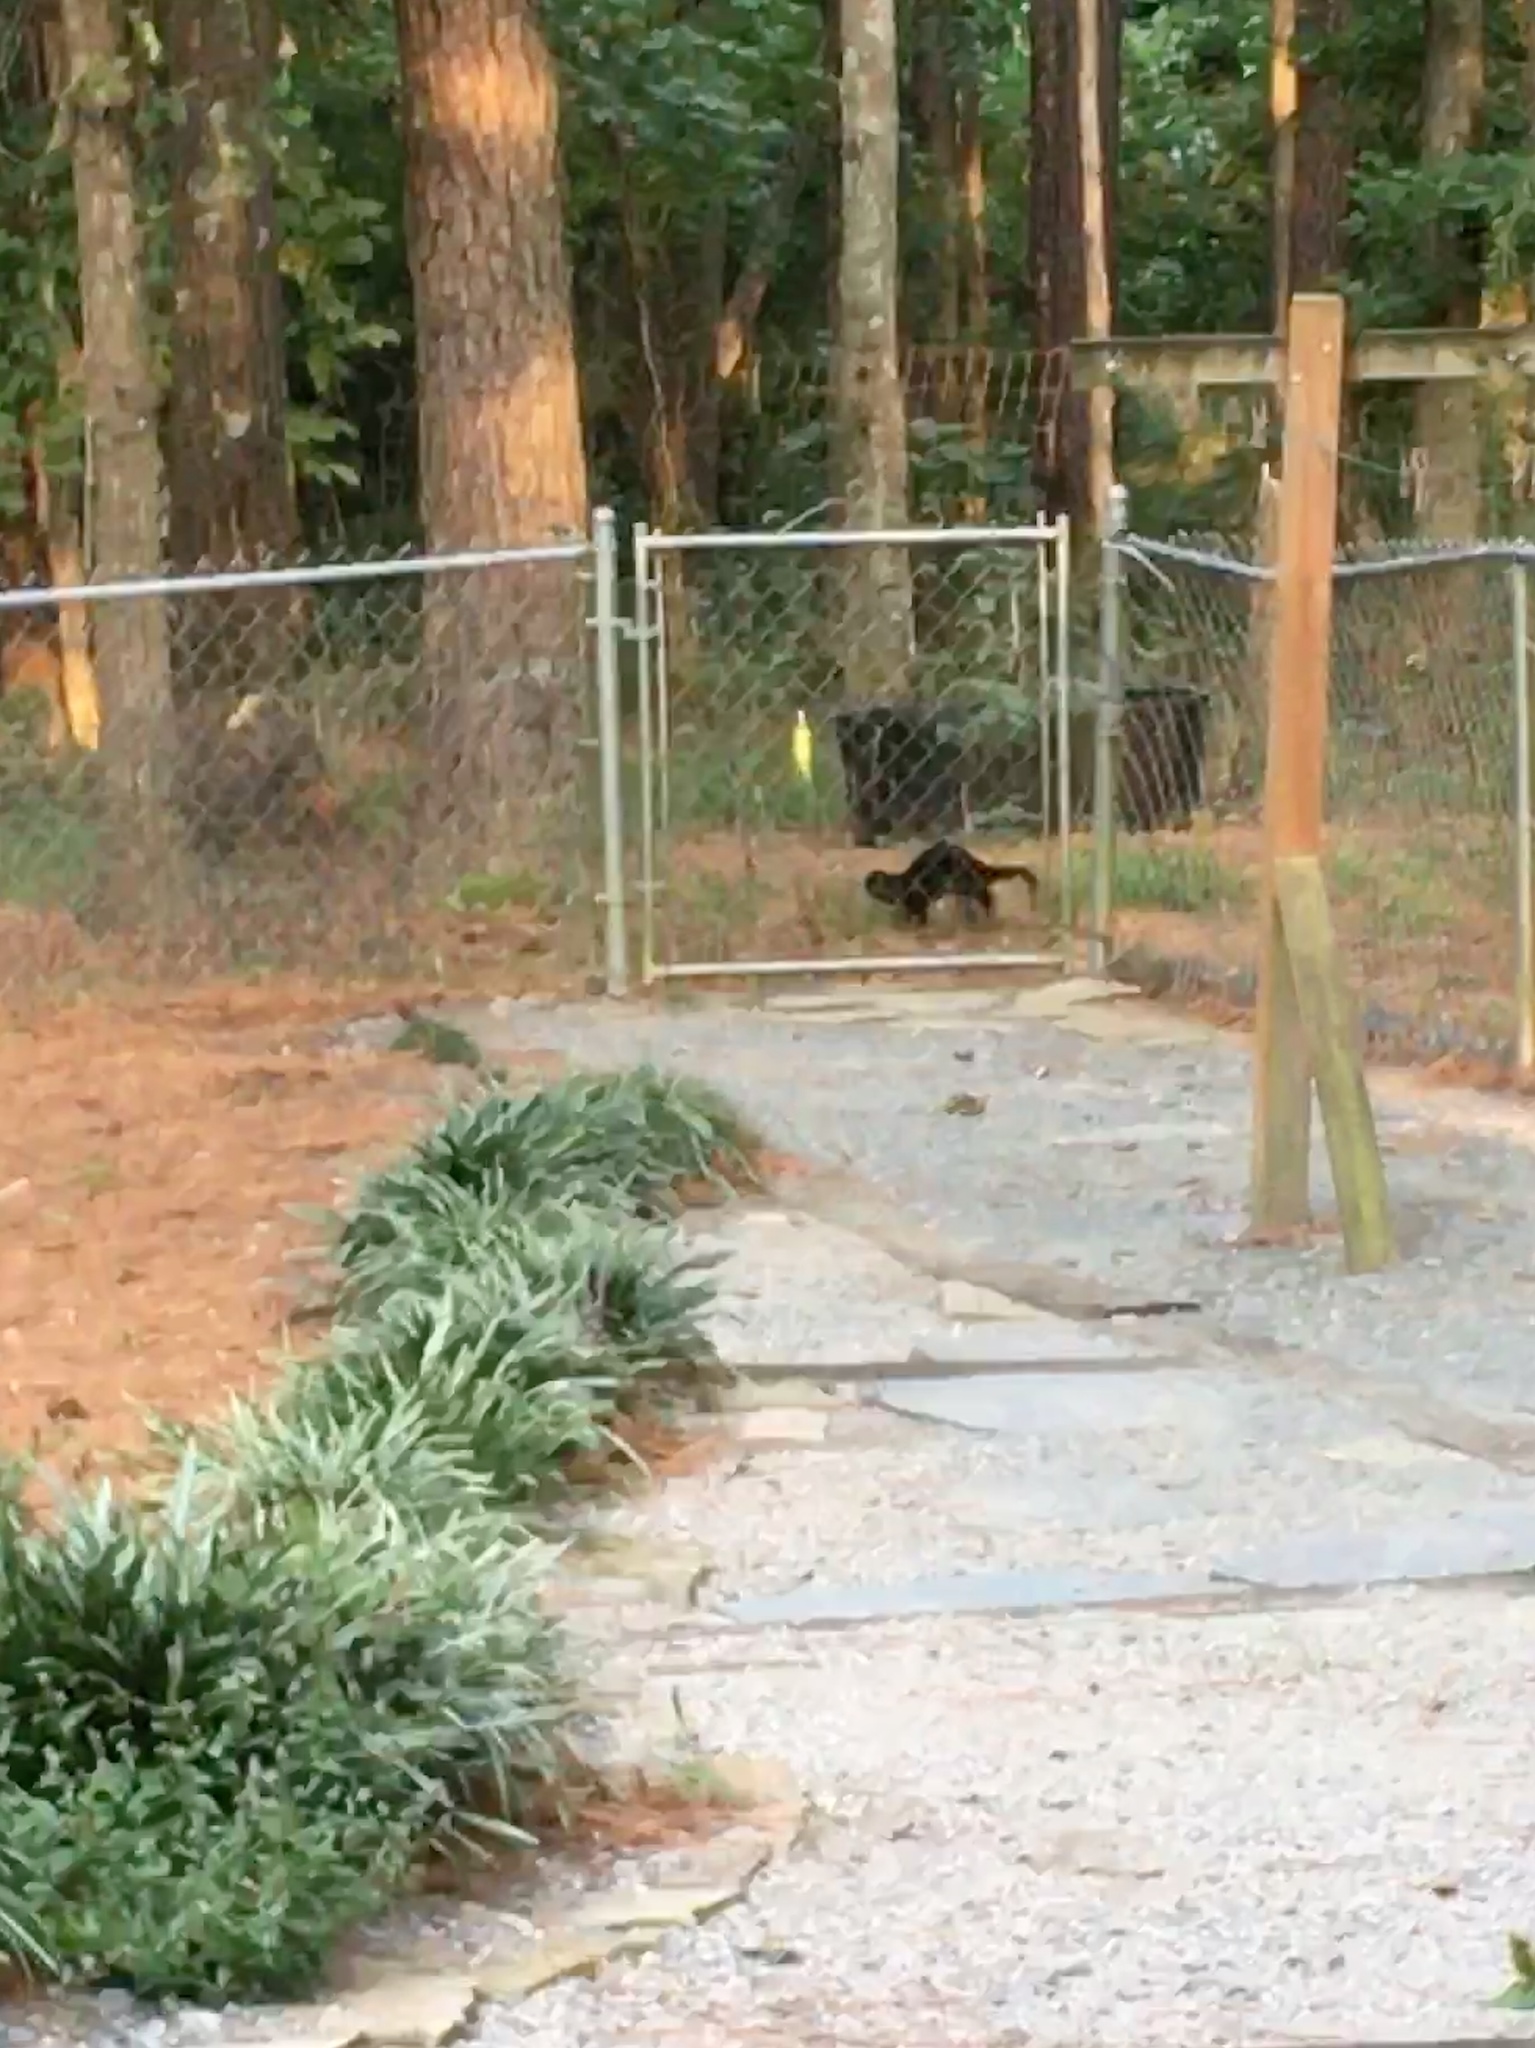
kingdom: Animalia
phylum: Chordata
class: Mammalia
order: Carnivora
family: Mustelidae
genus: Lontra
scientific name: Lontra canadensis
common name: North american river otter
